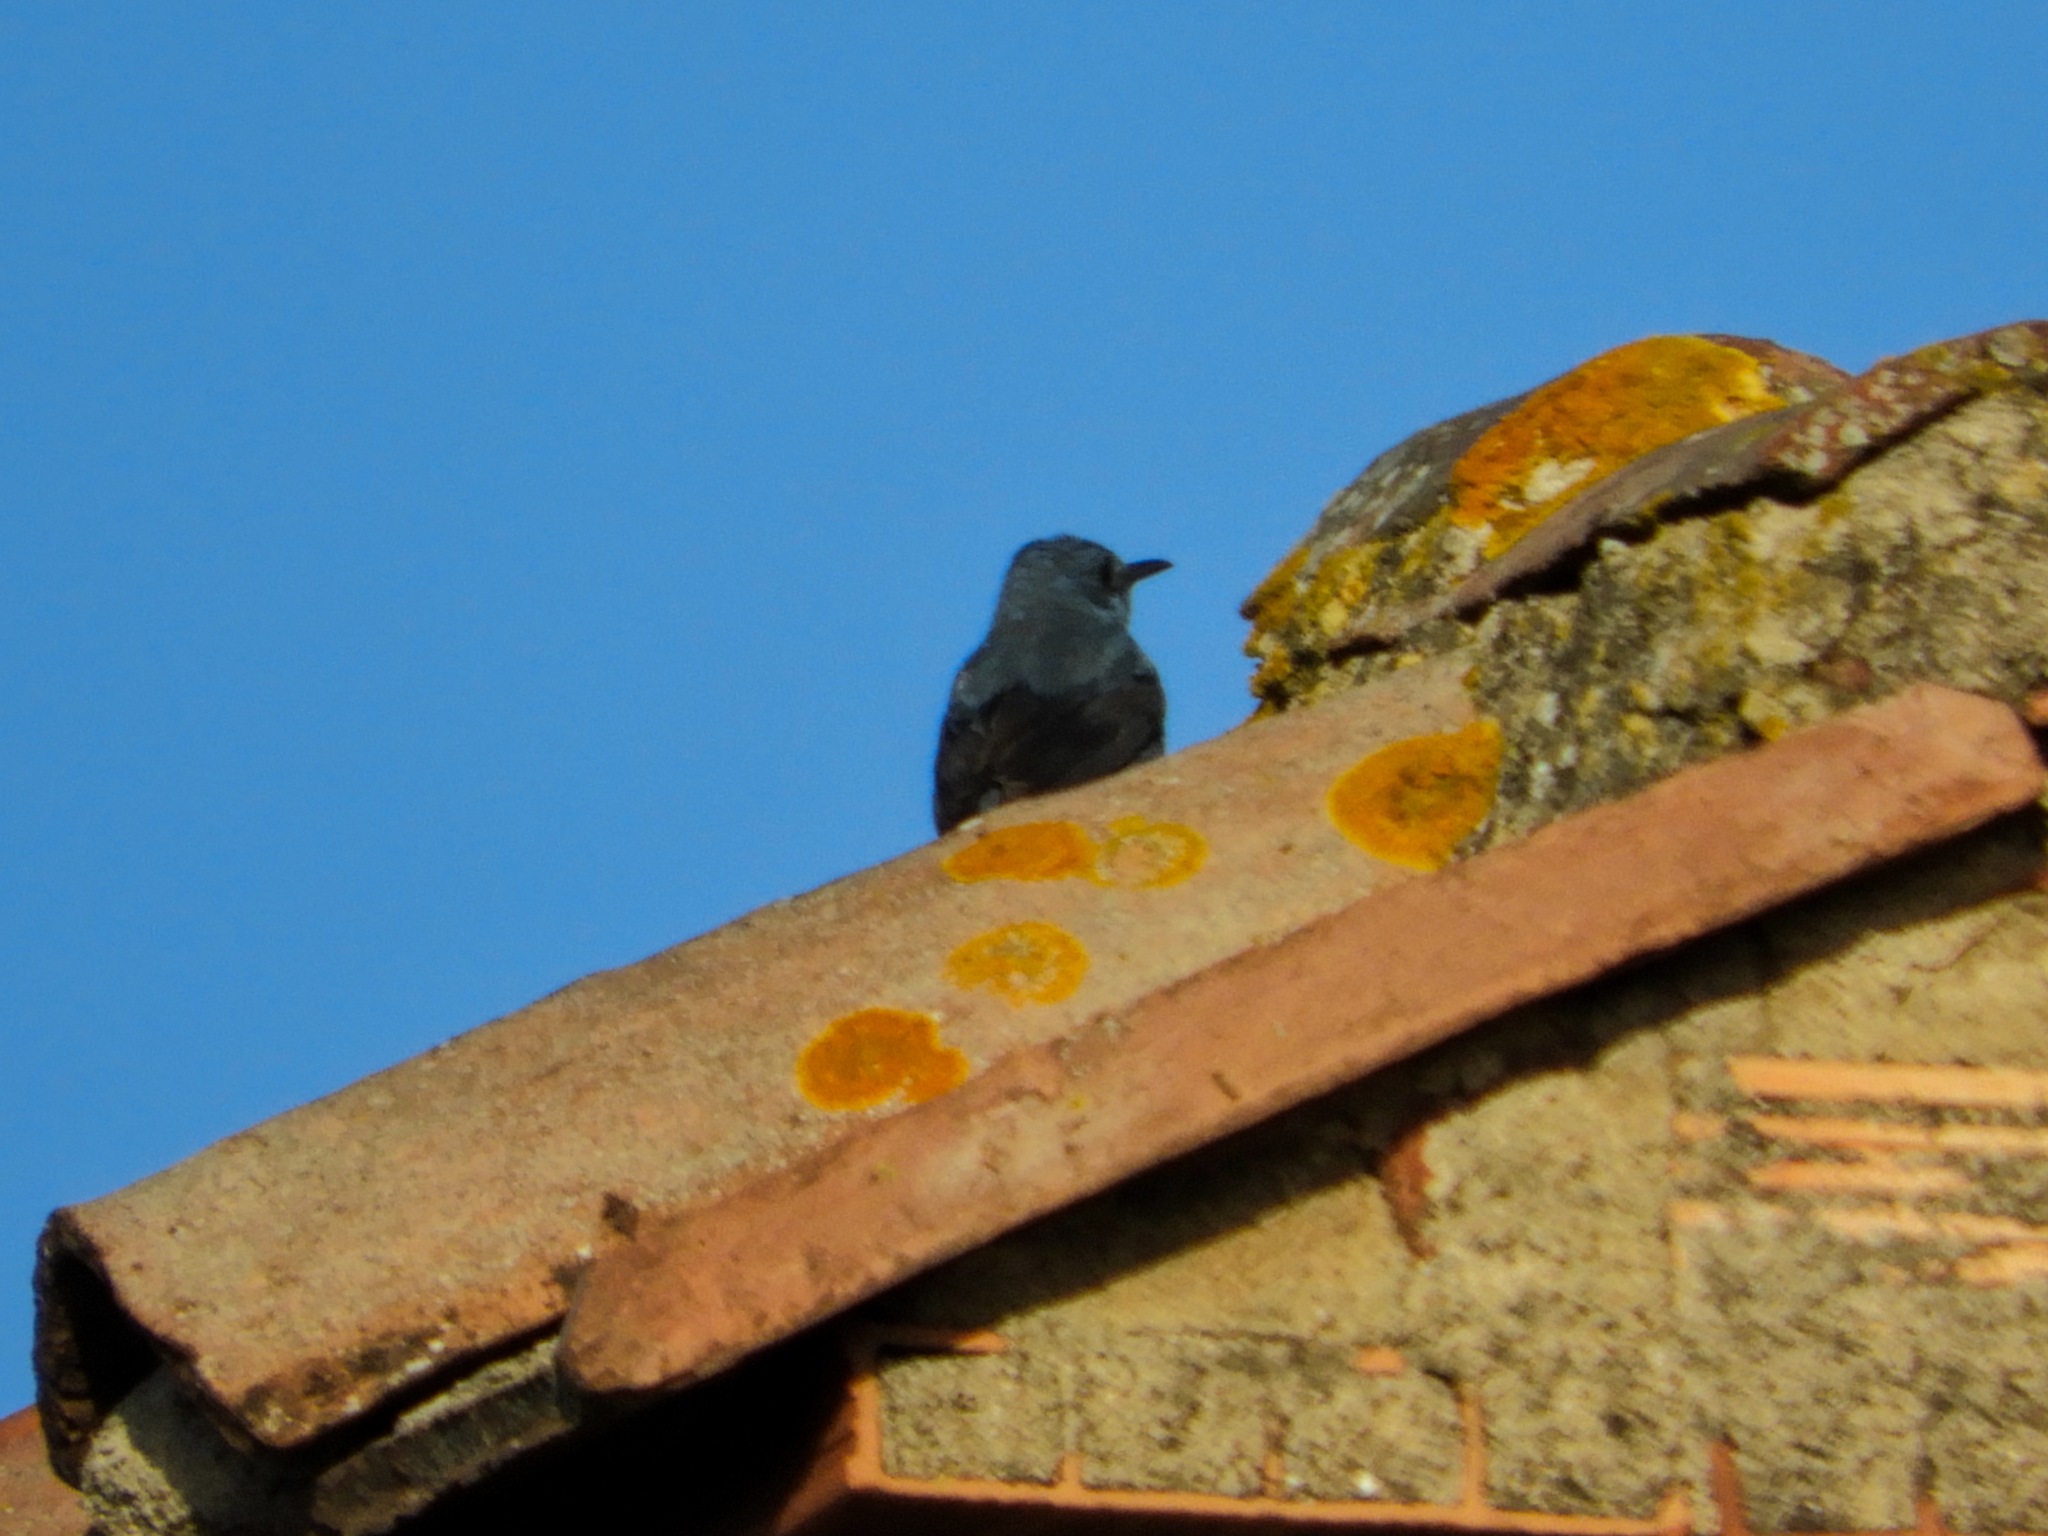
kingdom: Animalia
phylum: Chordata
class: Aves
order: Passeriformes
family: Muscicapidae
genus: Monticola
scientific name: Monticola solitarius
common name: Blue rock thrush
